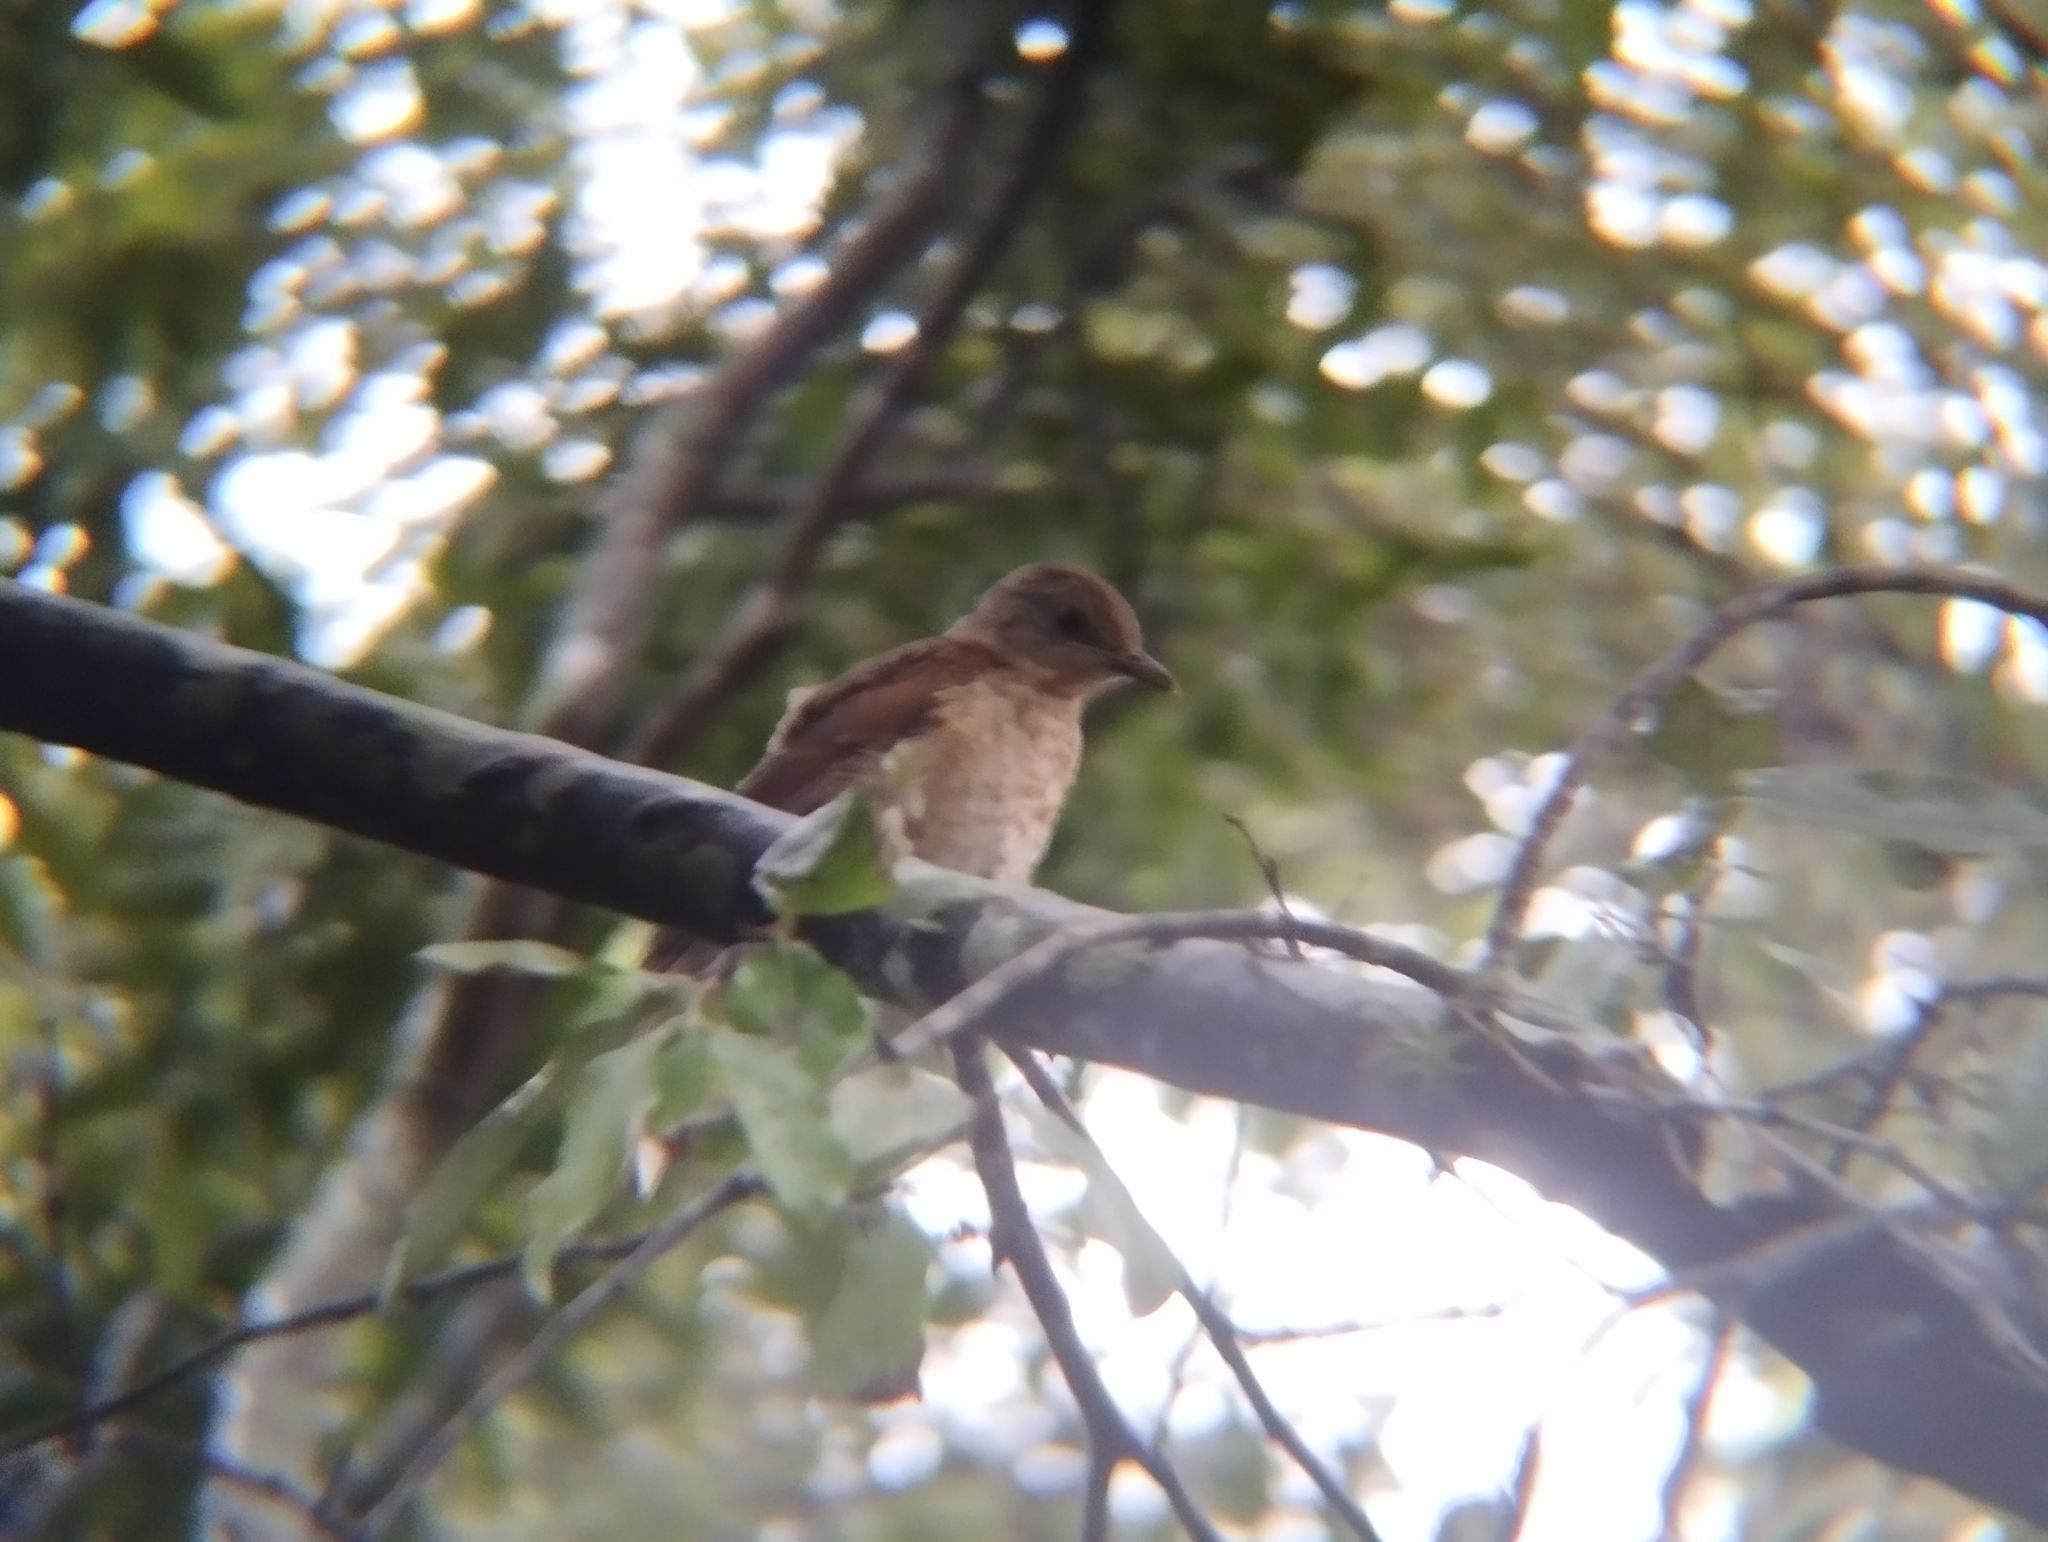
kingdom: Animalia
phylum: Chordata
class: Aves
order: Passeriformes
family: Turdidae
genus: Turdus
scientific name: Turdus leucomelas
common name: Pale-breasted thrush
